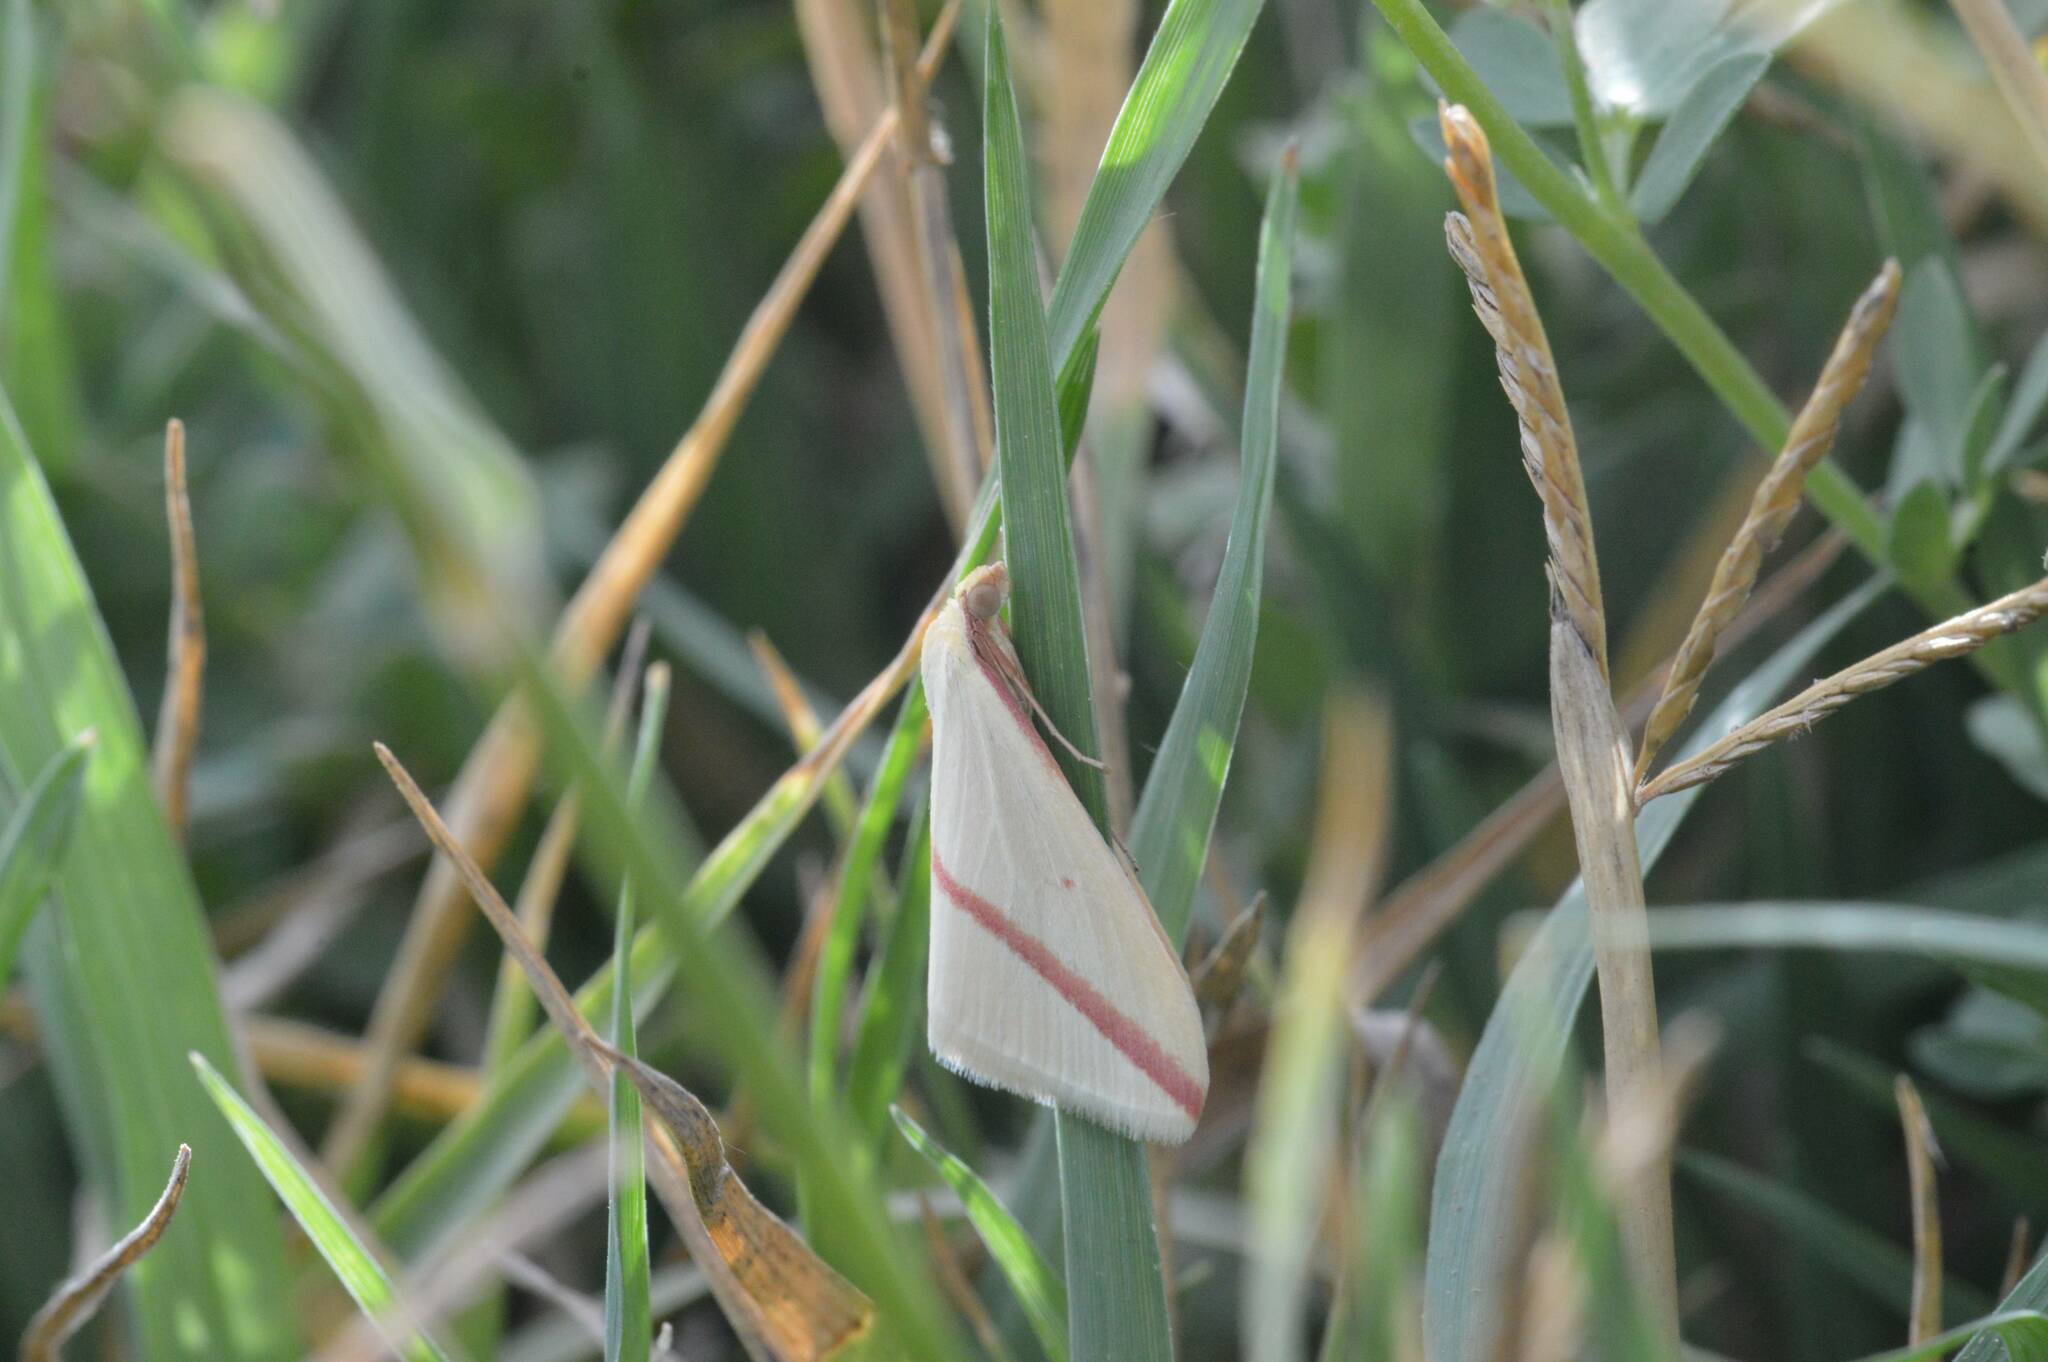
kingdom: Animalia
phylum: Arthropoda
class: Insecta
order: Lepidoptera
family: Geometridae
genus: Rhodometra
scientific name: Rhodometra sacraria
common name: Vestal
